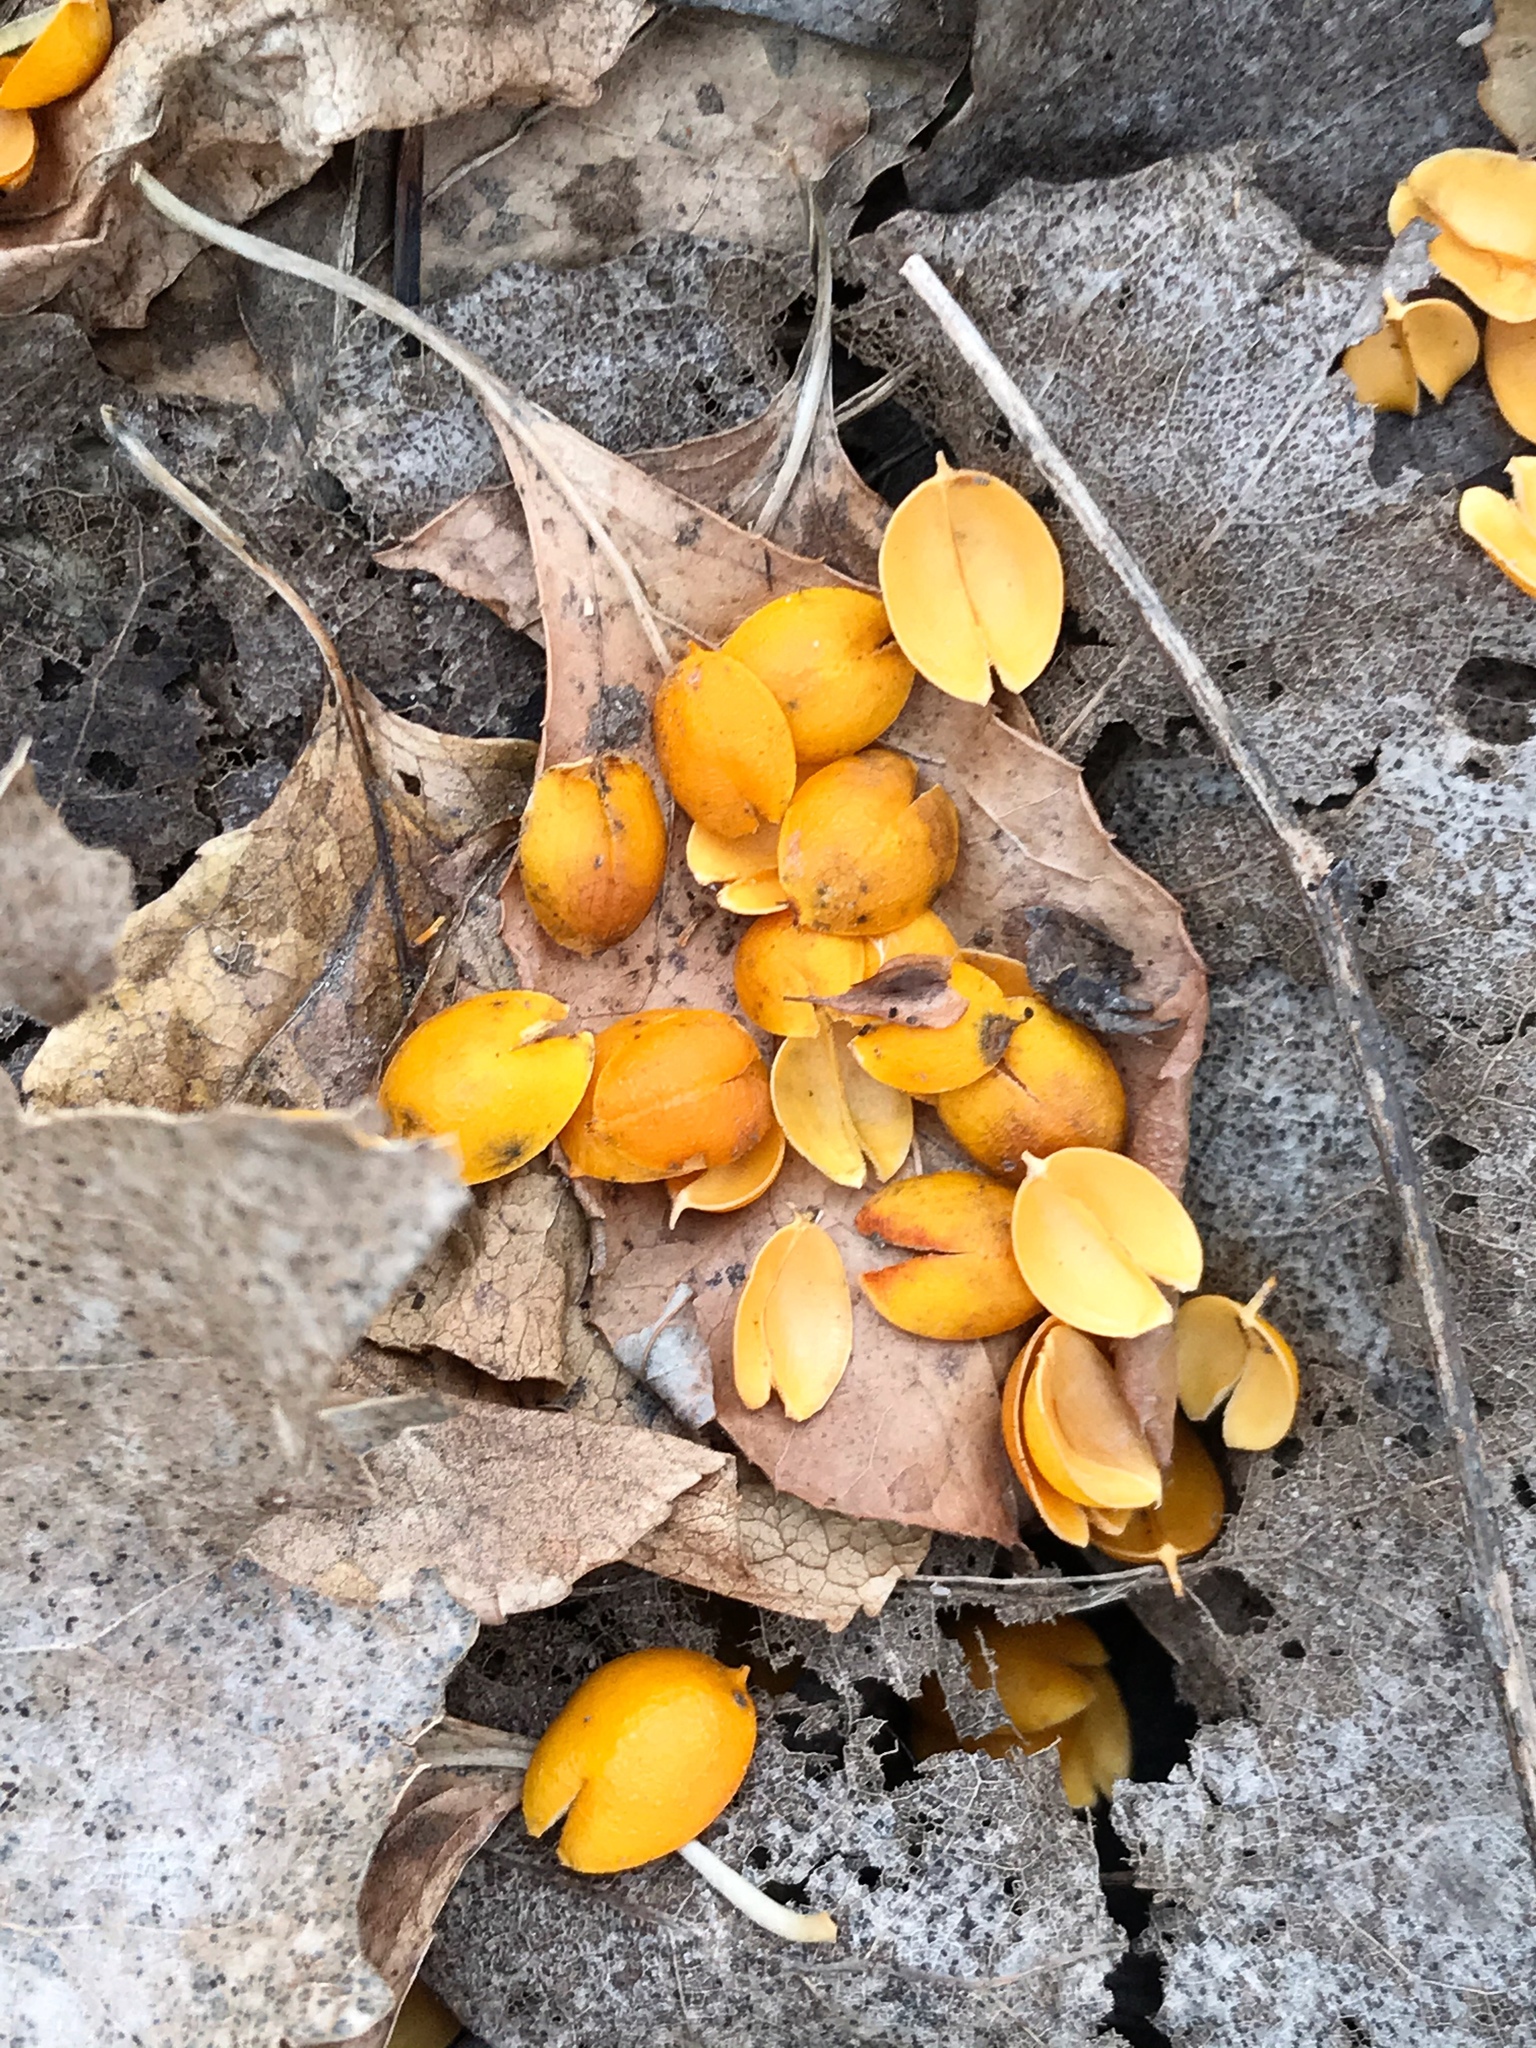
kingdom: Plantae
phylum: Tracheophyta
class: Magnoliopsida
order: Celastrales
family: Celastraceae
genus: Celastrus
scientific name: Celastrus orbiculatus
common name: Oriental bittersweet
